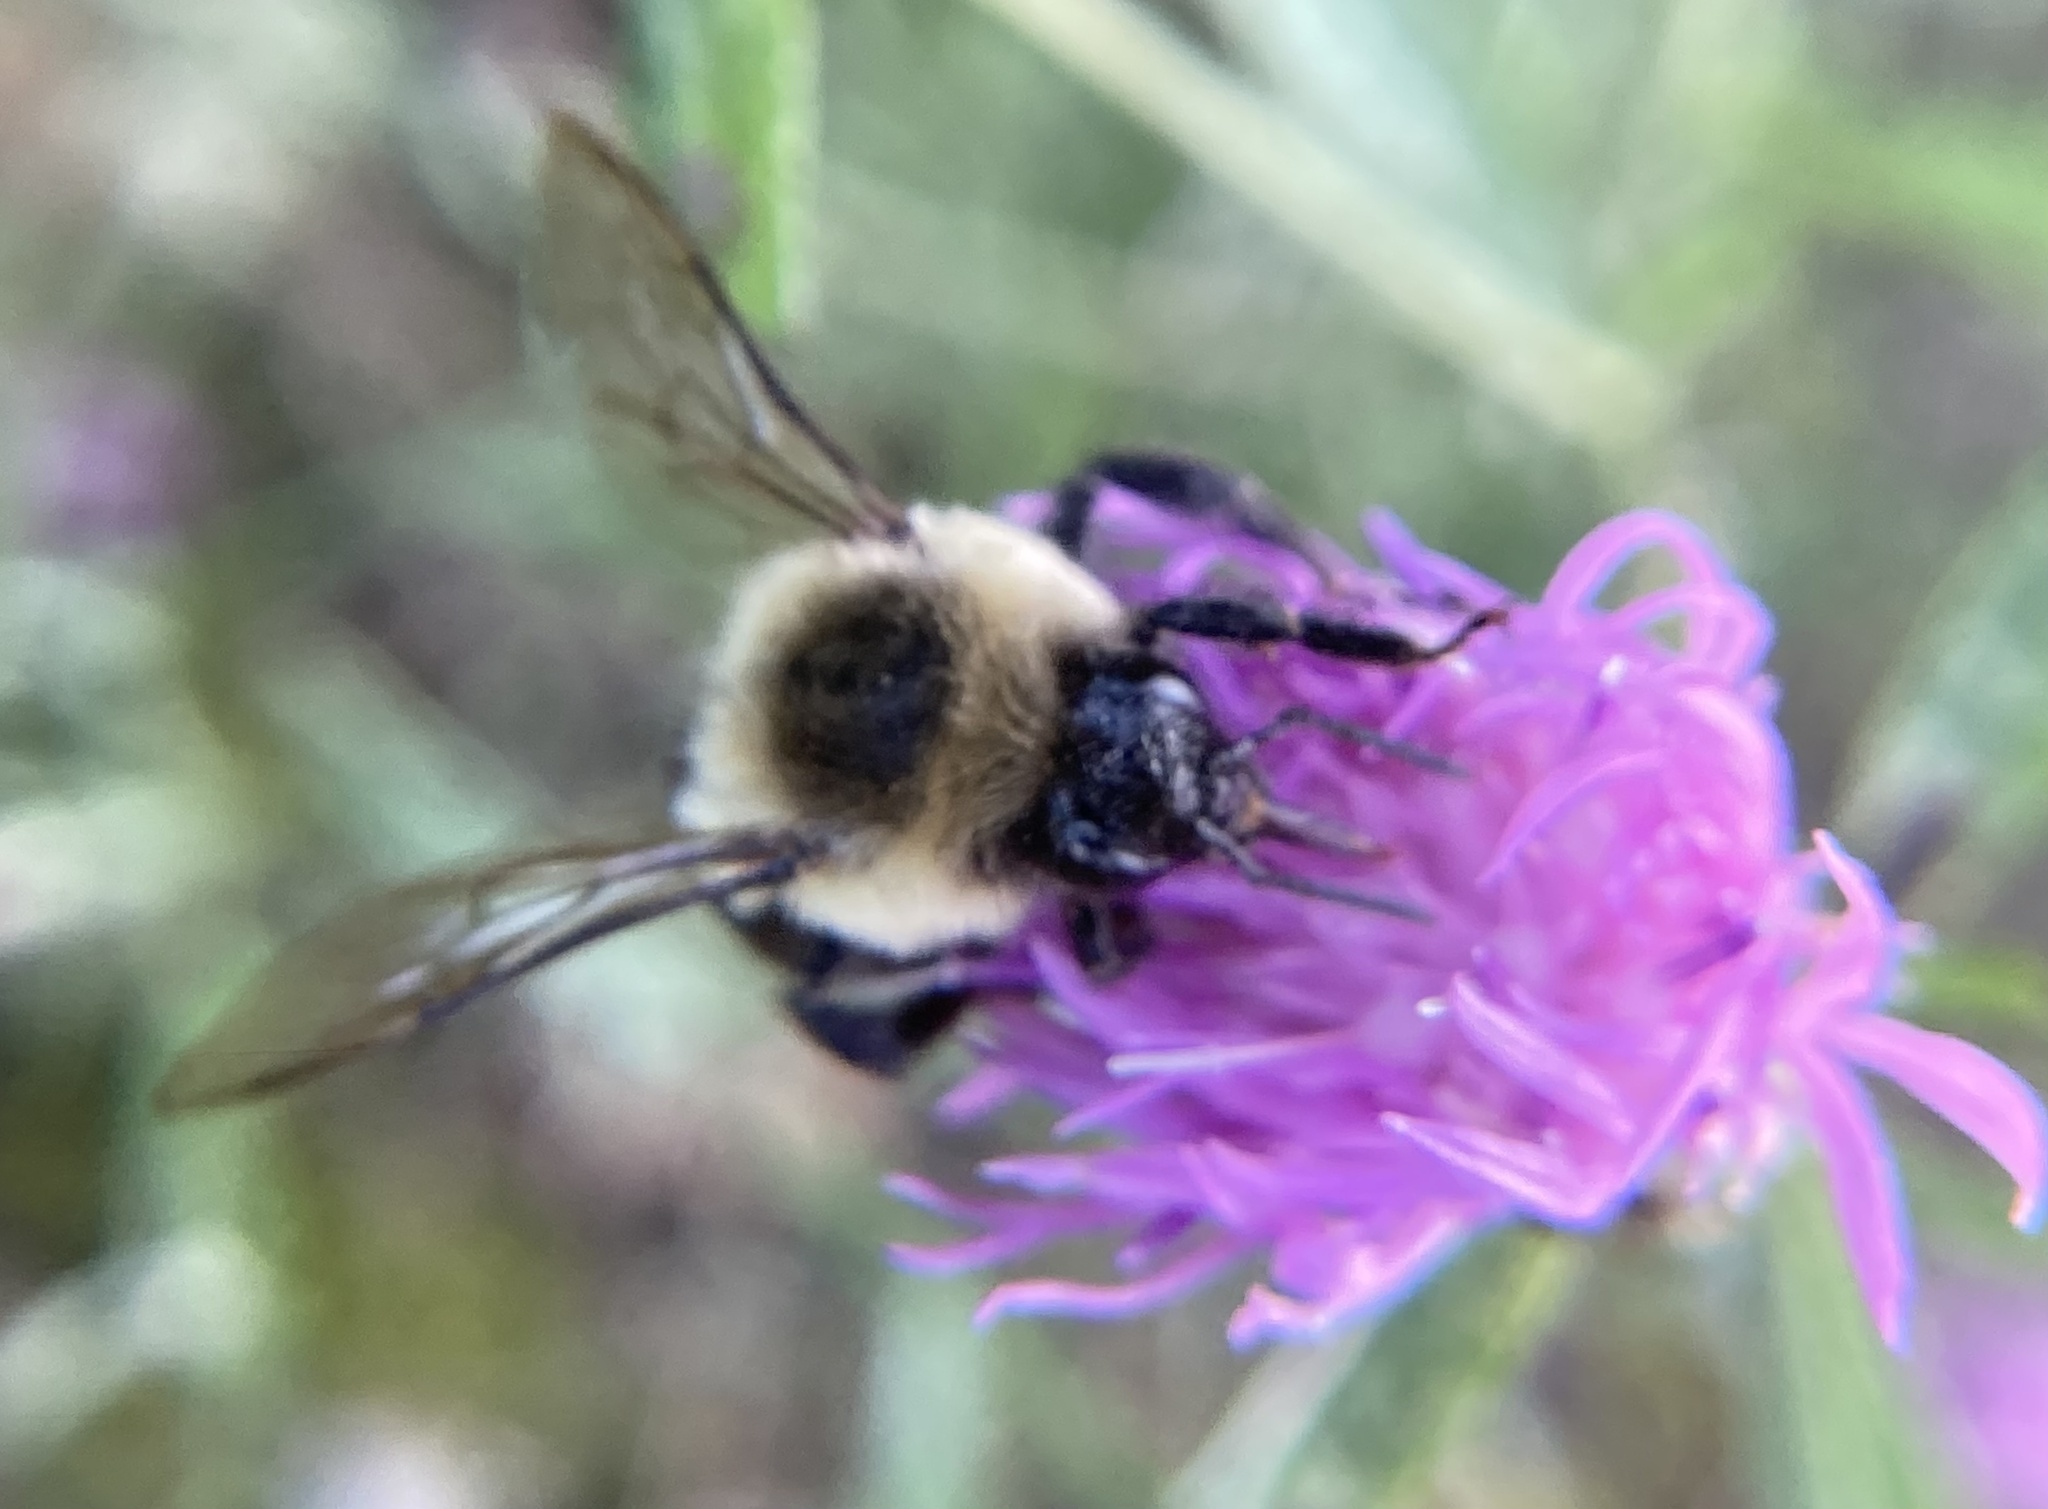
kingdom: Animalia
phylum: Arthropoda
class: Insecta
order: Hymenoptera
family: Apidae
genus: Bombus
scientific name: Bombus impatiens
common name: Common eastern bumble bee
